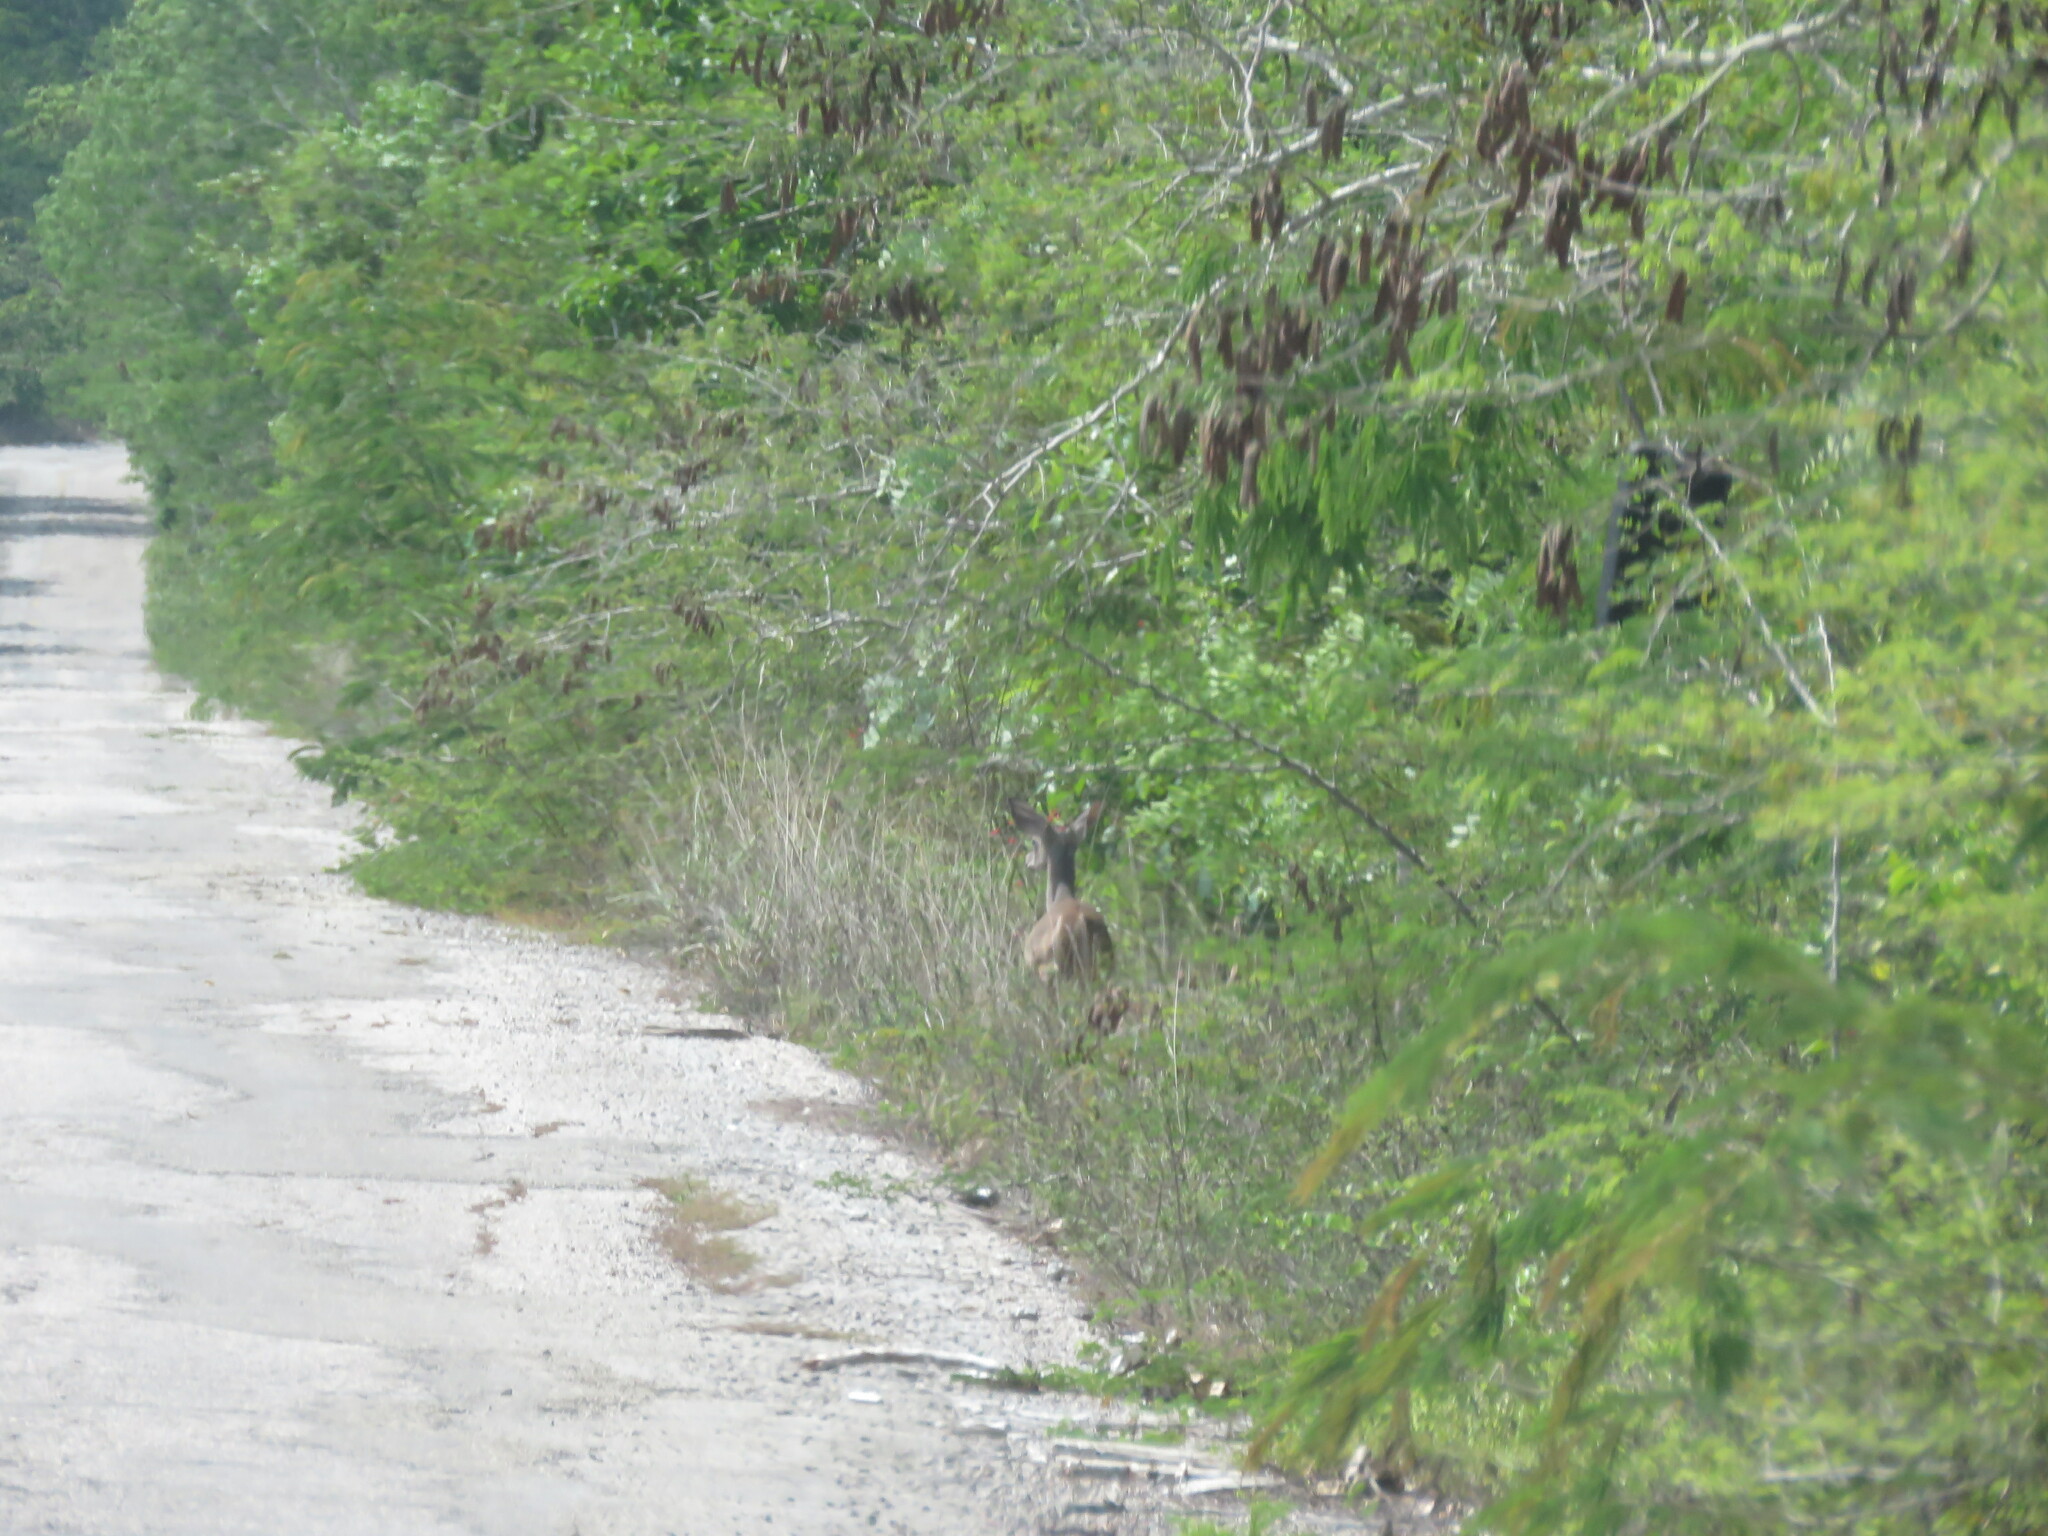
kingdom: Animalia
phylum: Chordata
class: Mammalia
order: Artiodactyla
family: Cervidae
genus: Odocoileus
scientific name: Odocoileus virginianus
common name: White-tailed deer
